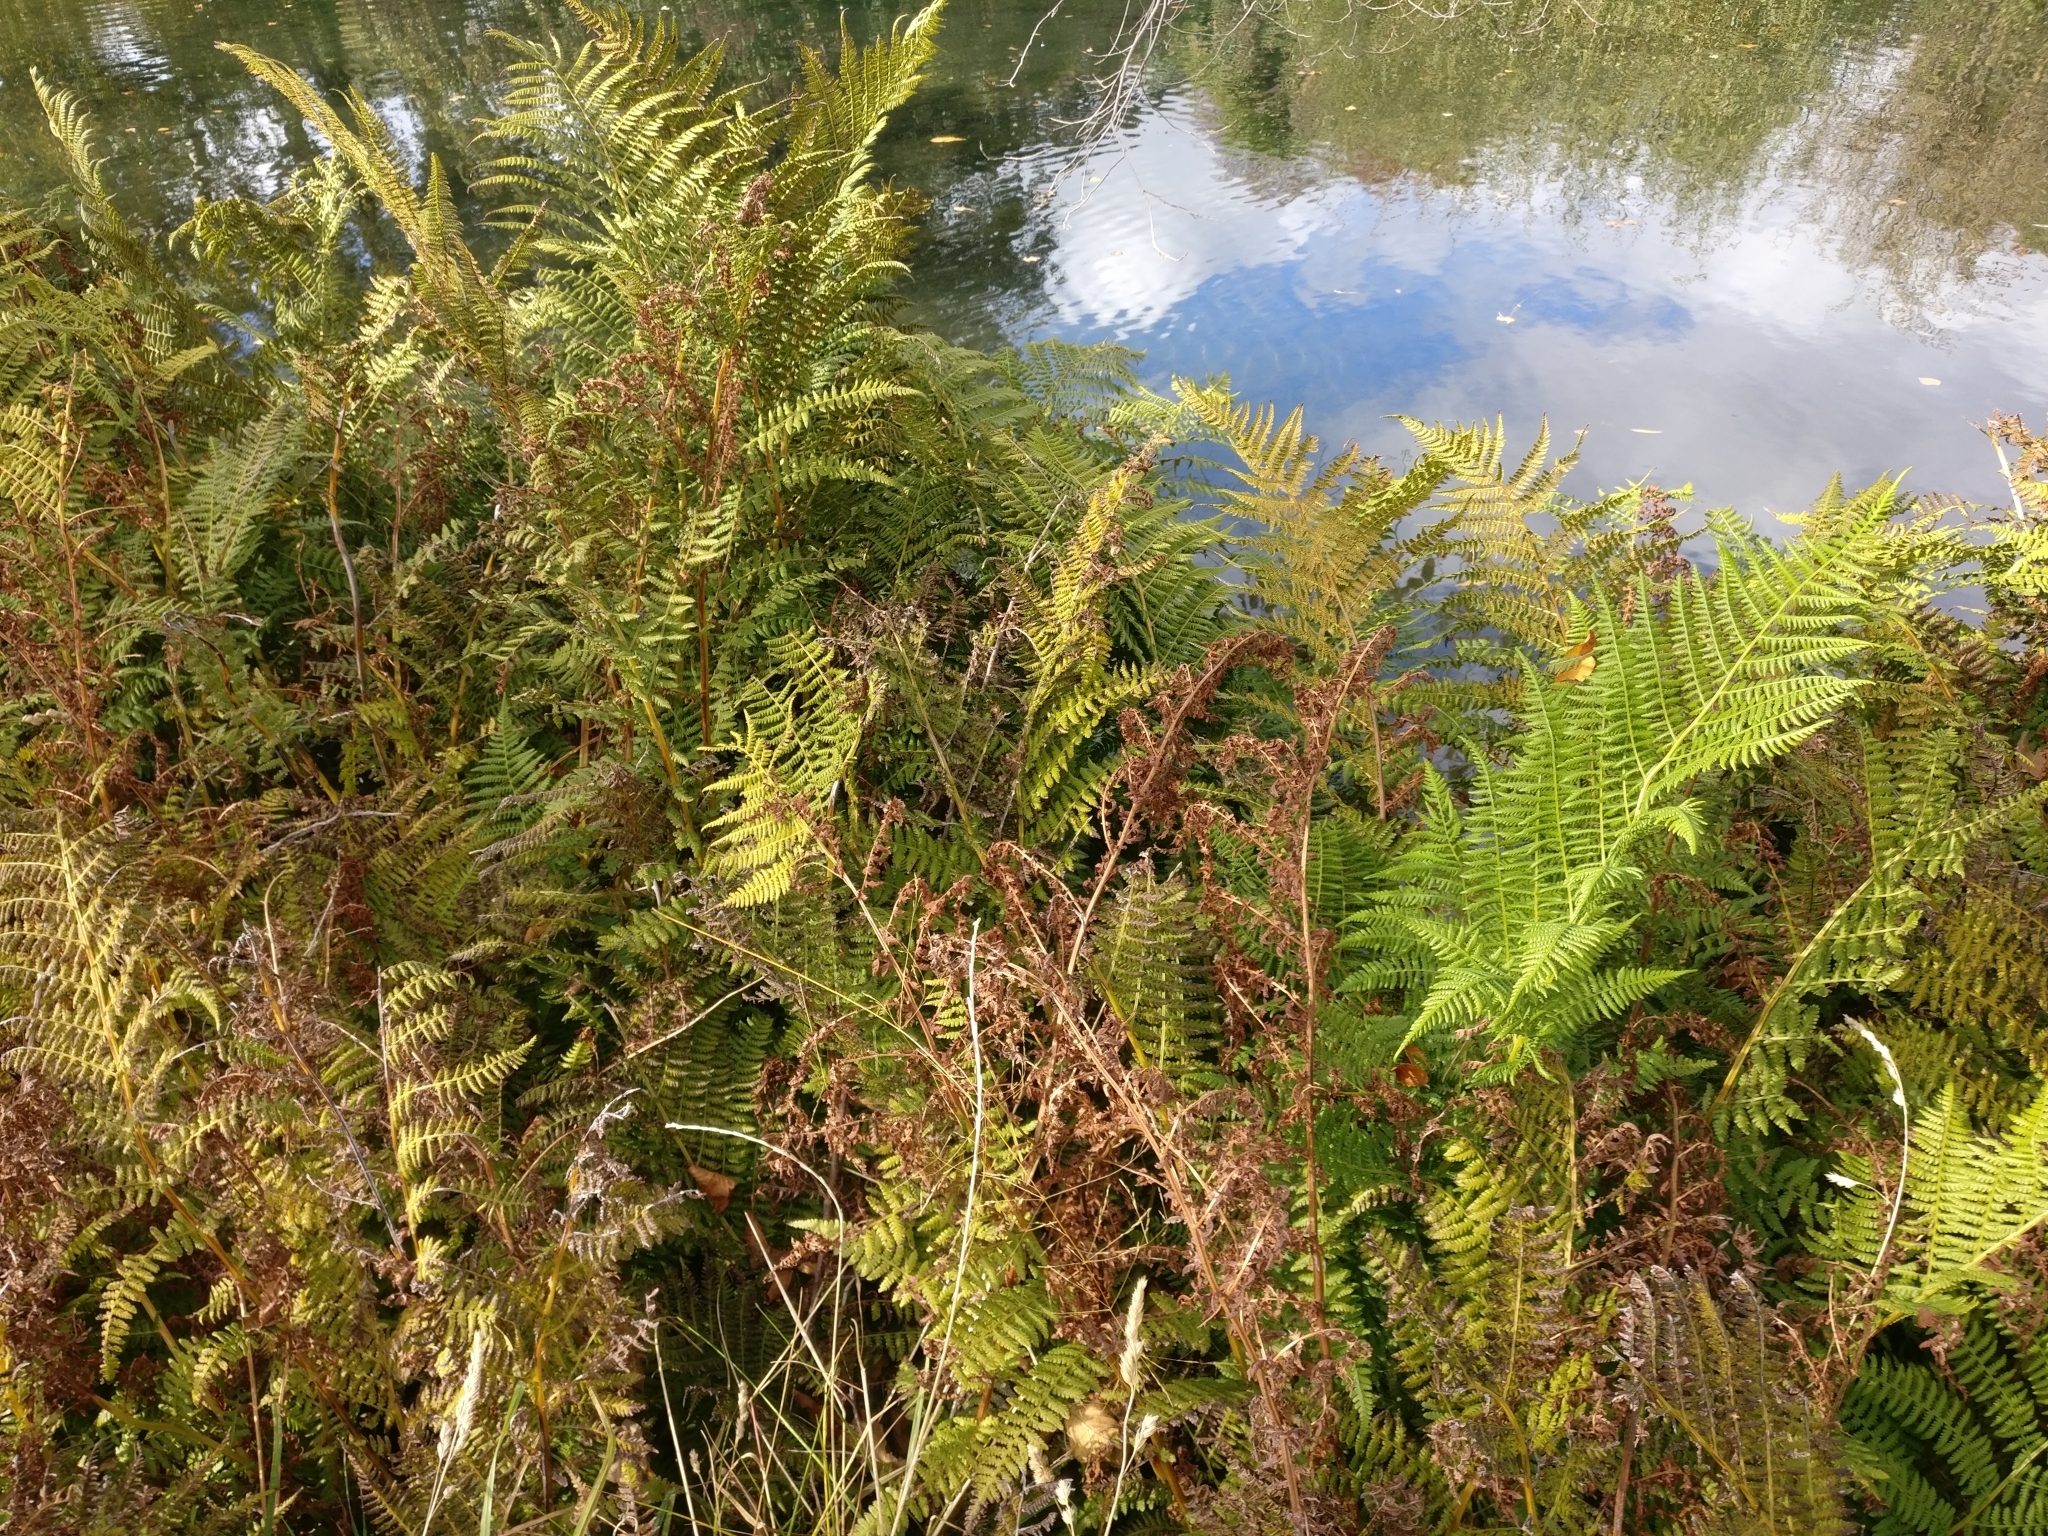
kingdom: Plantae
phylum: Tracheophyta
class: Polypodiopsida
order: Polypodiales
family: Dennstaedtiaceae
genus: Hypolepis
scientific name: Hypolepis ambigua
